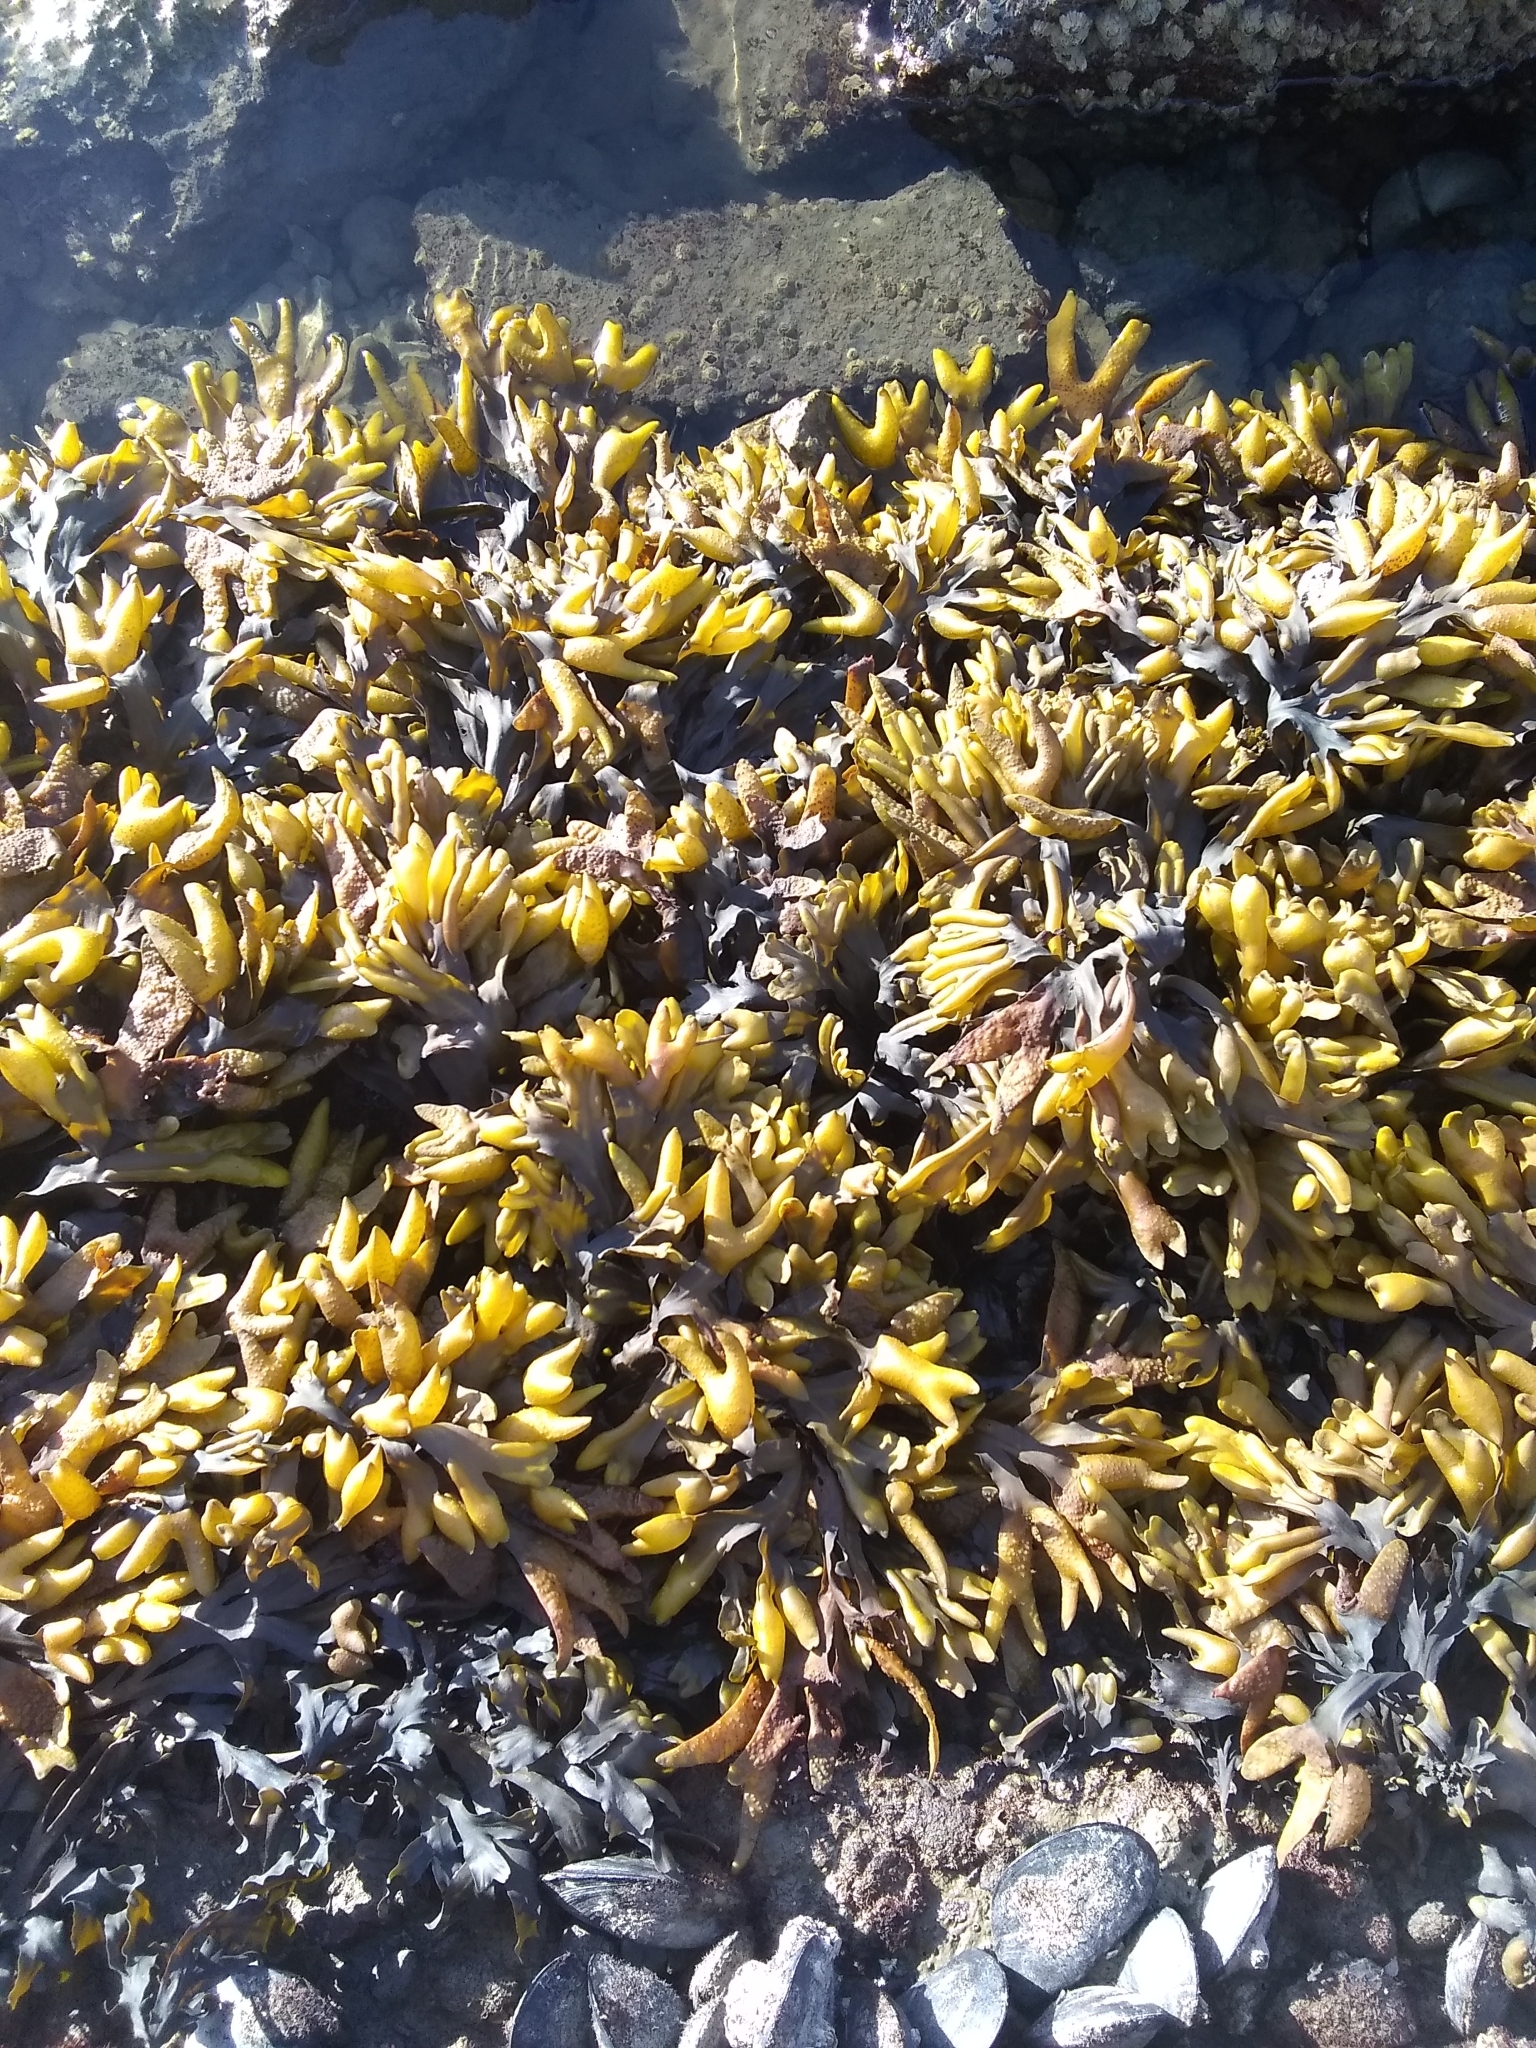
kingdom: Chromista
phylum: Ochrophyta
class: Phaeophyceae
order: Fucales
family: Fucaceae
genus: Fucus
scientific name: Fucus distichus
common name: Rockweed
